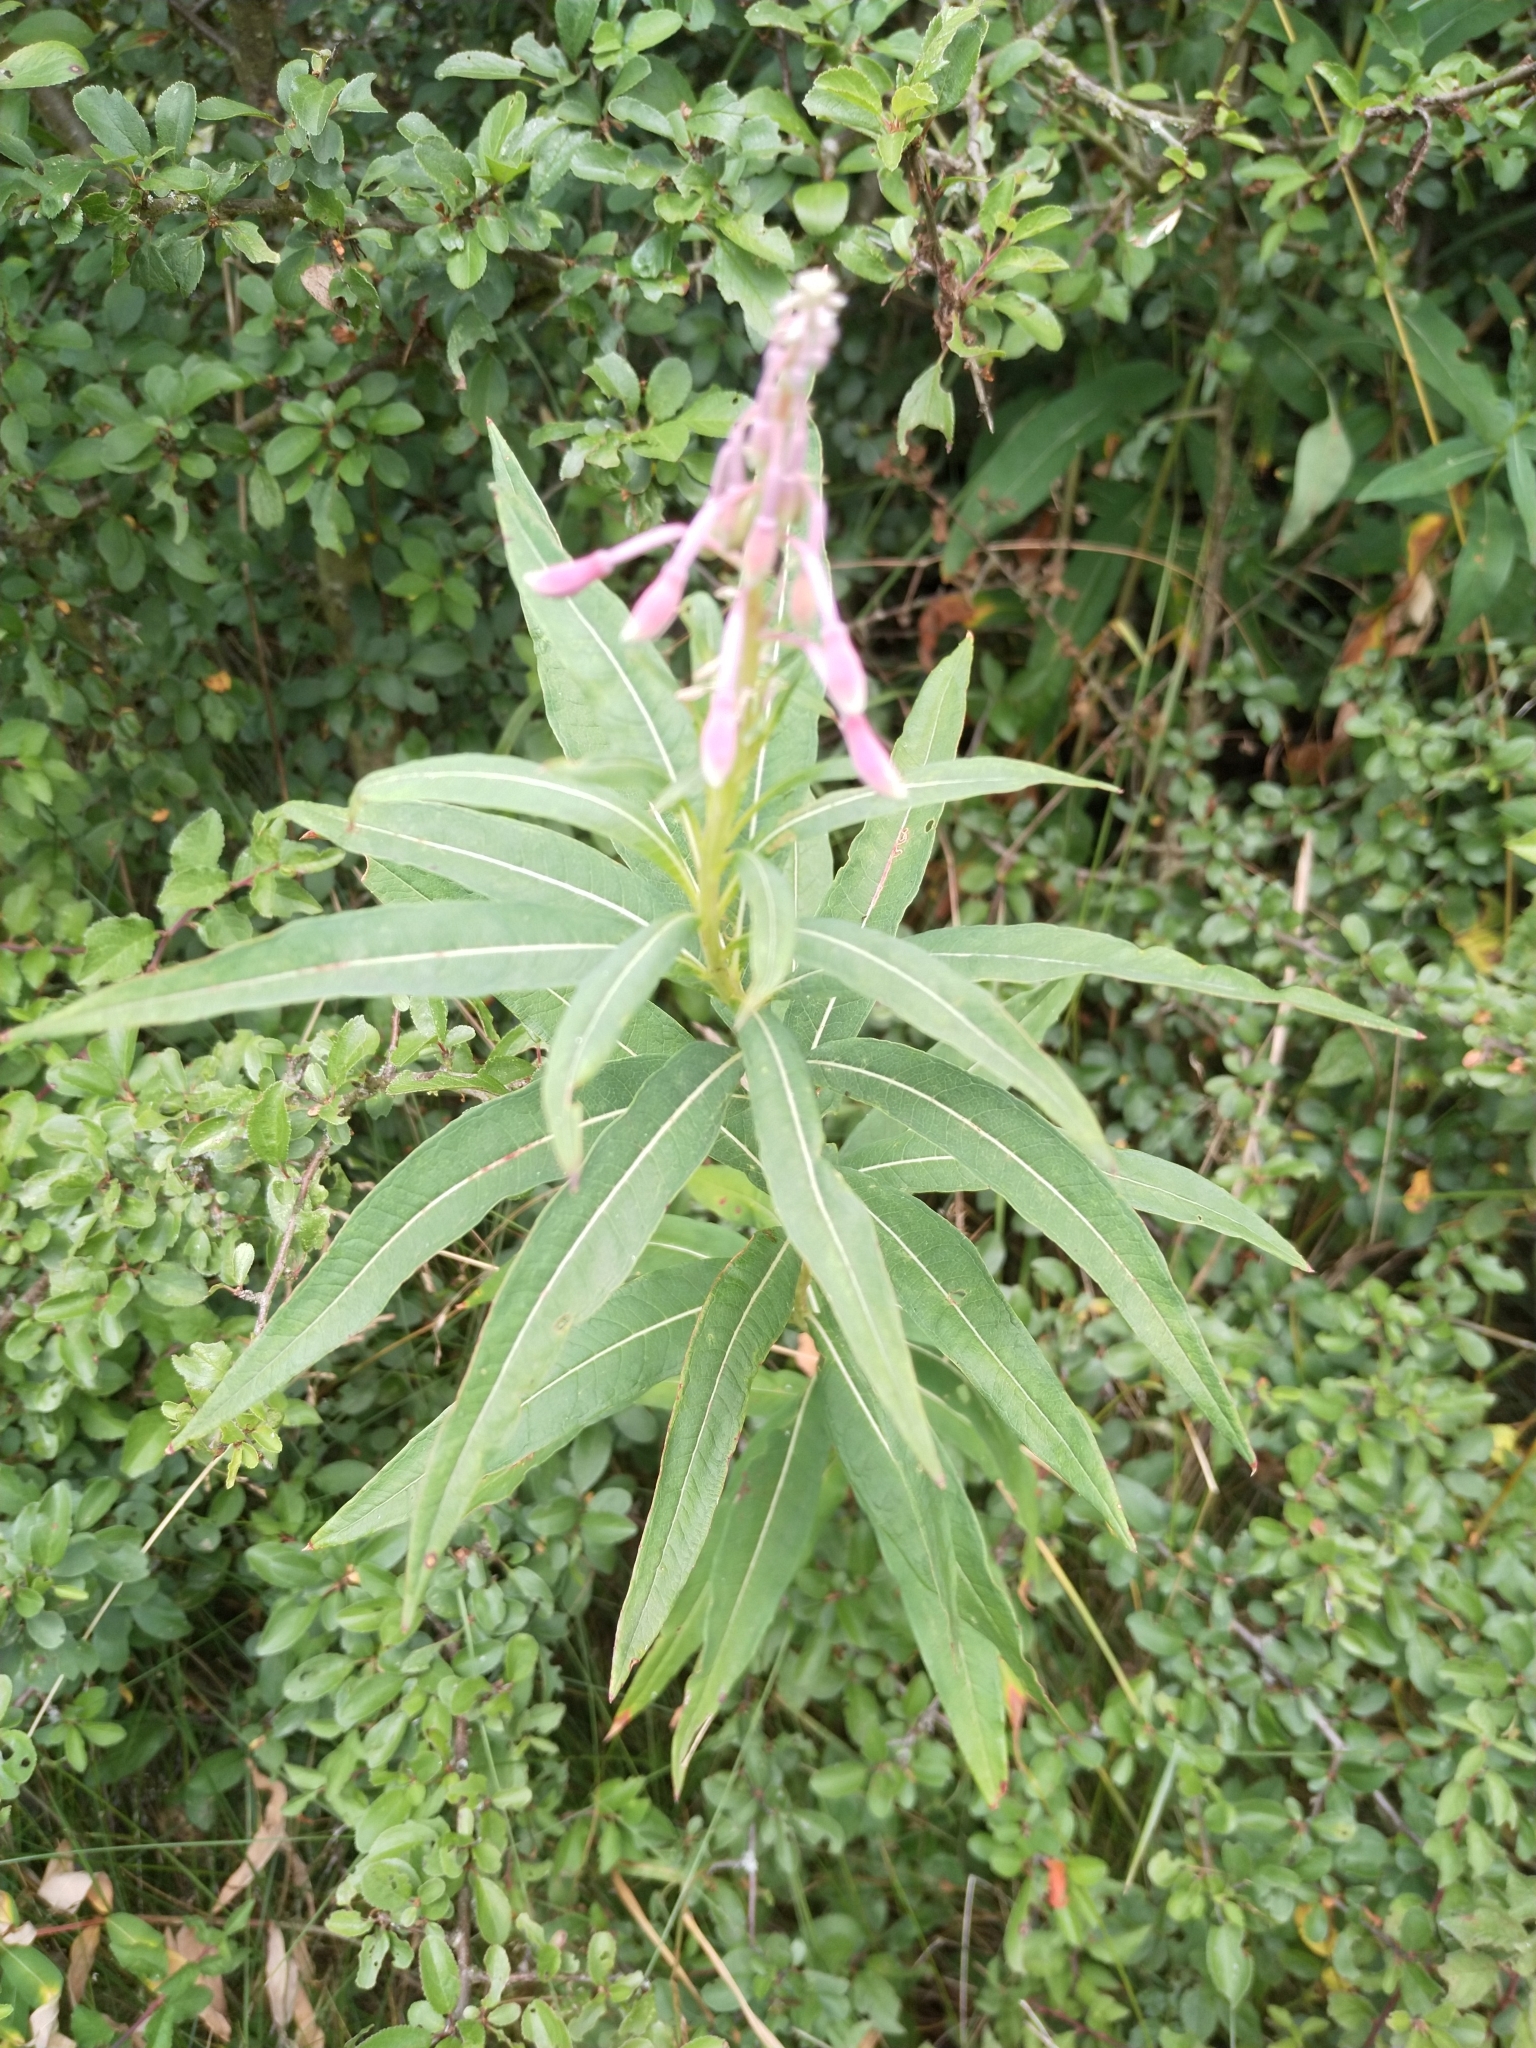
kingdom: Plantae
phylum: Tracheophyta
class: Magnoliopsida
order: Myrtales
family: Onagraceae
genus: Chamaenerion
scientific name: Chamaenerion angustifolium
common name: Fireweed
